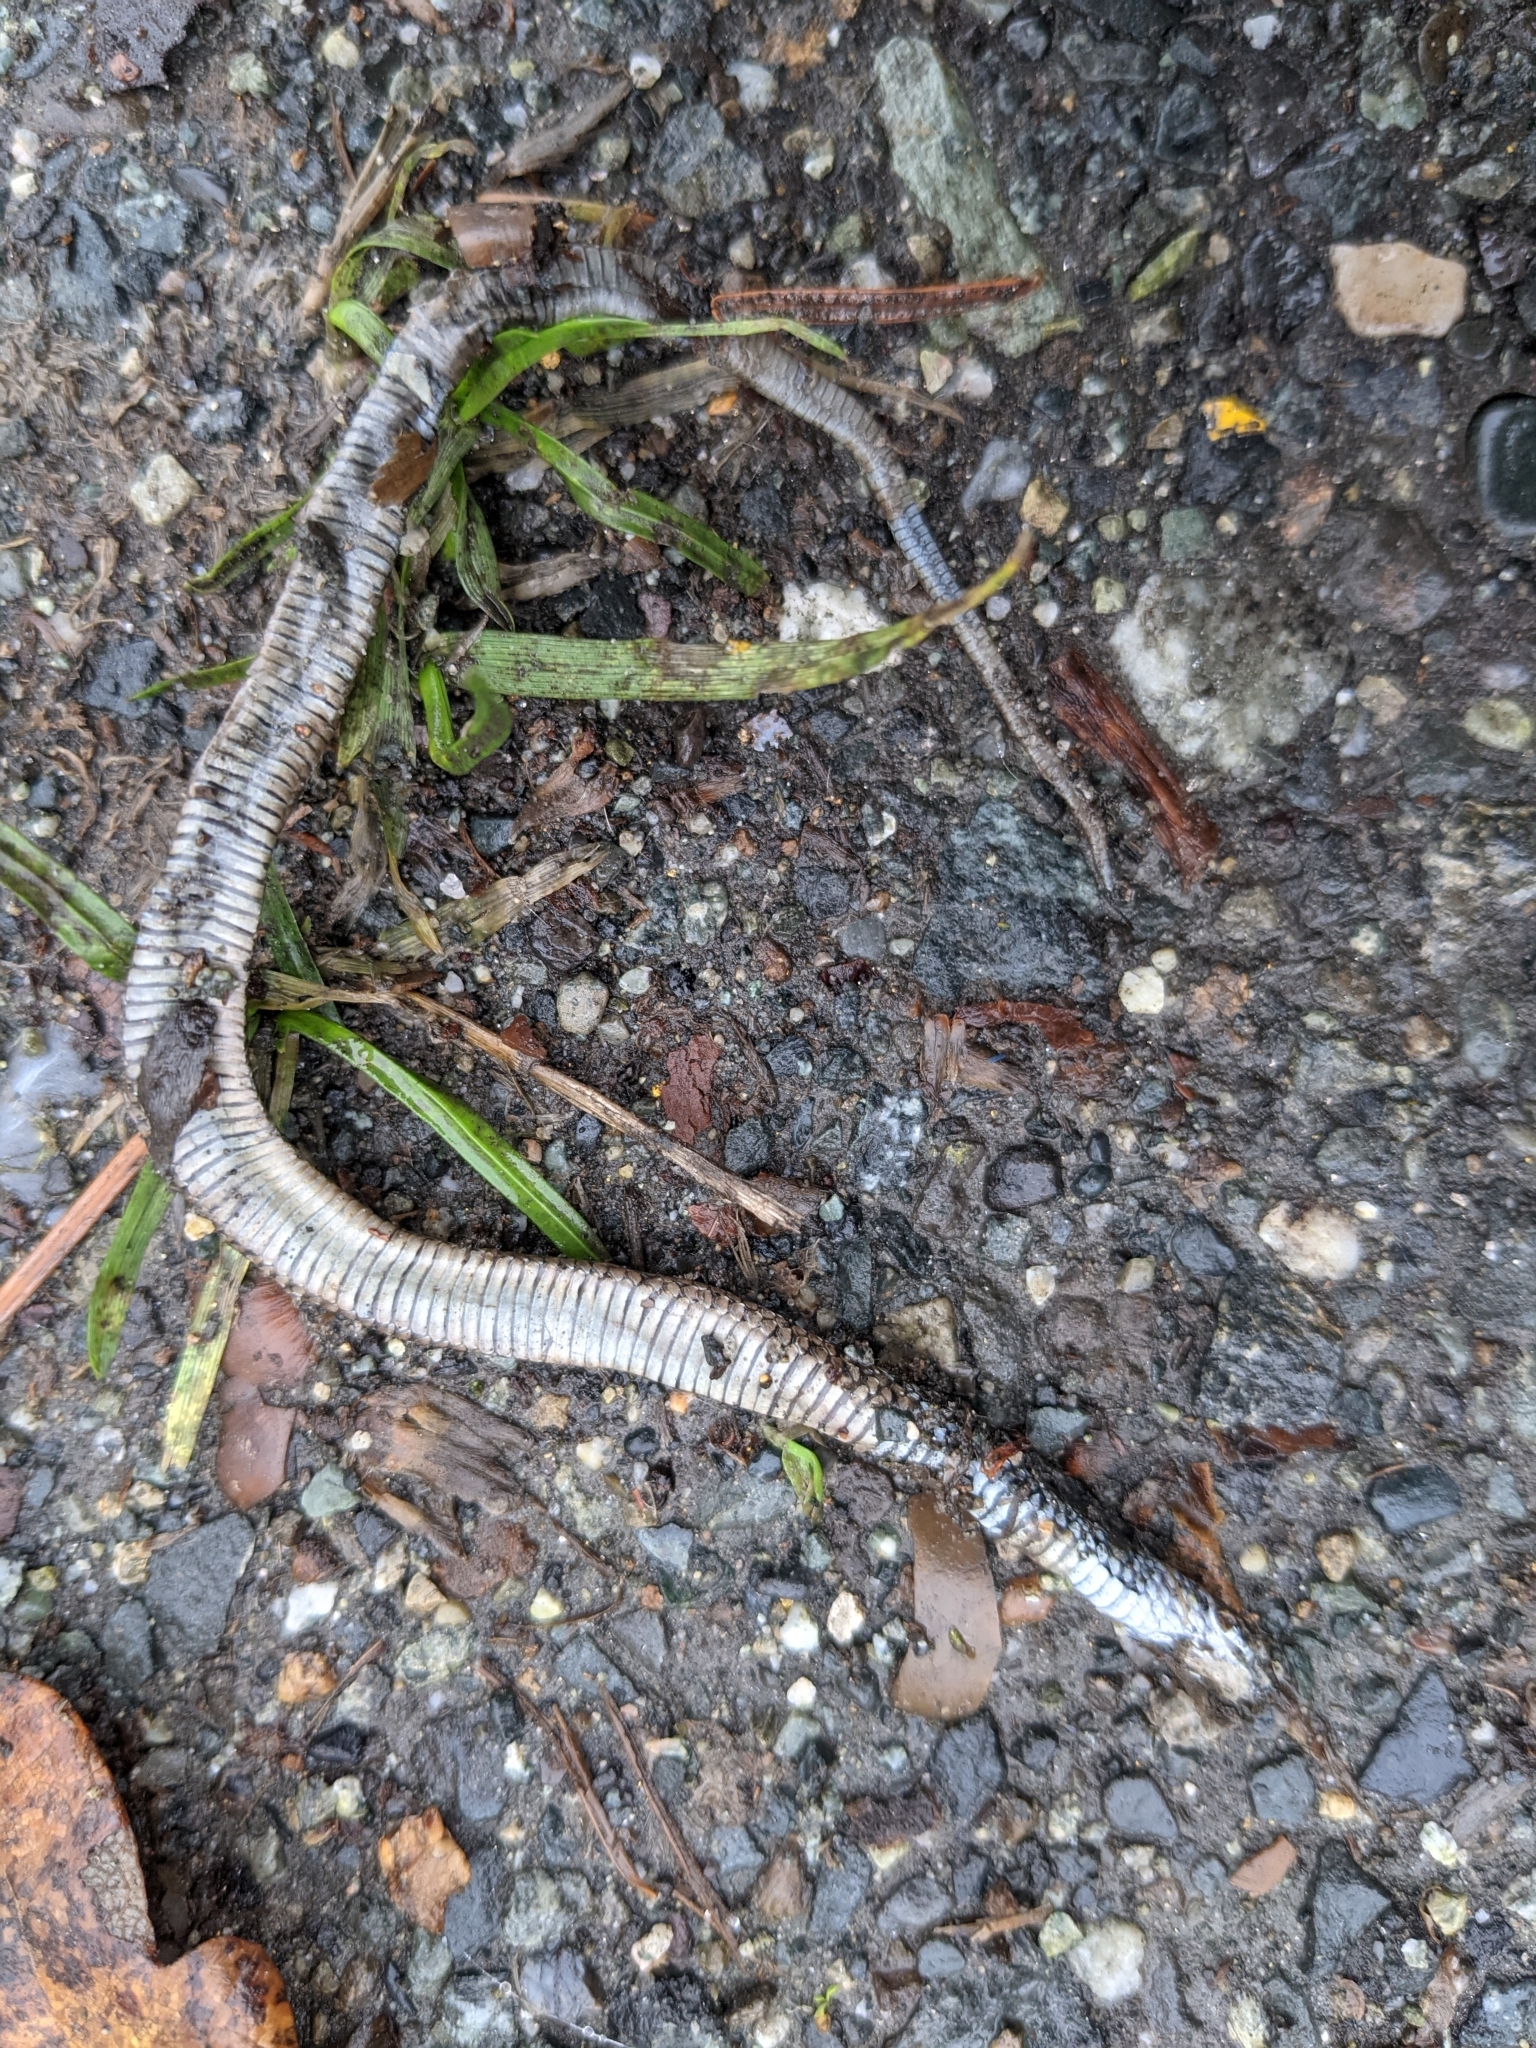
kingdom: Animalia
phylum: Chordata
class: Squamata
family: Colubridae
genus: Thamnophis
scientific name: Thamnophis sirtalis
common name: Common garter snake
